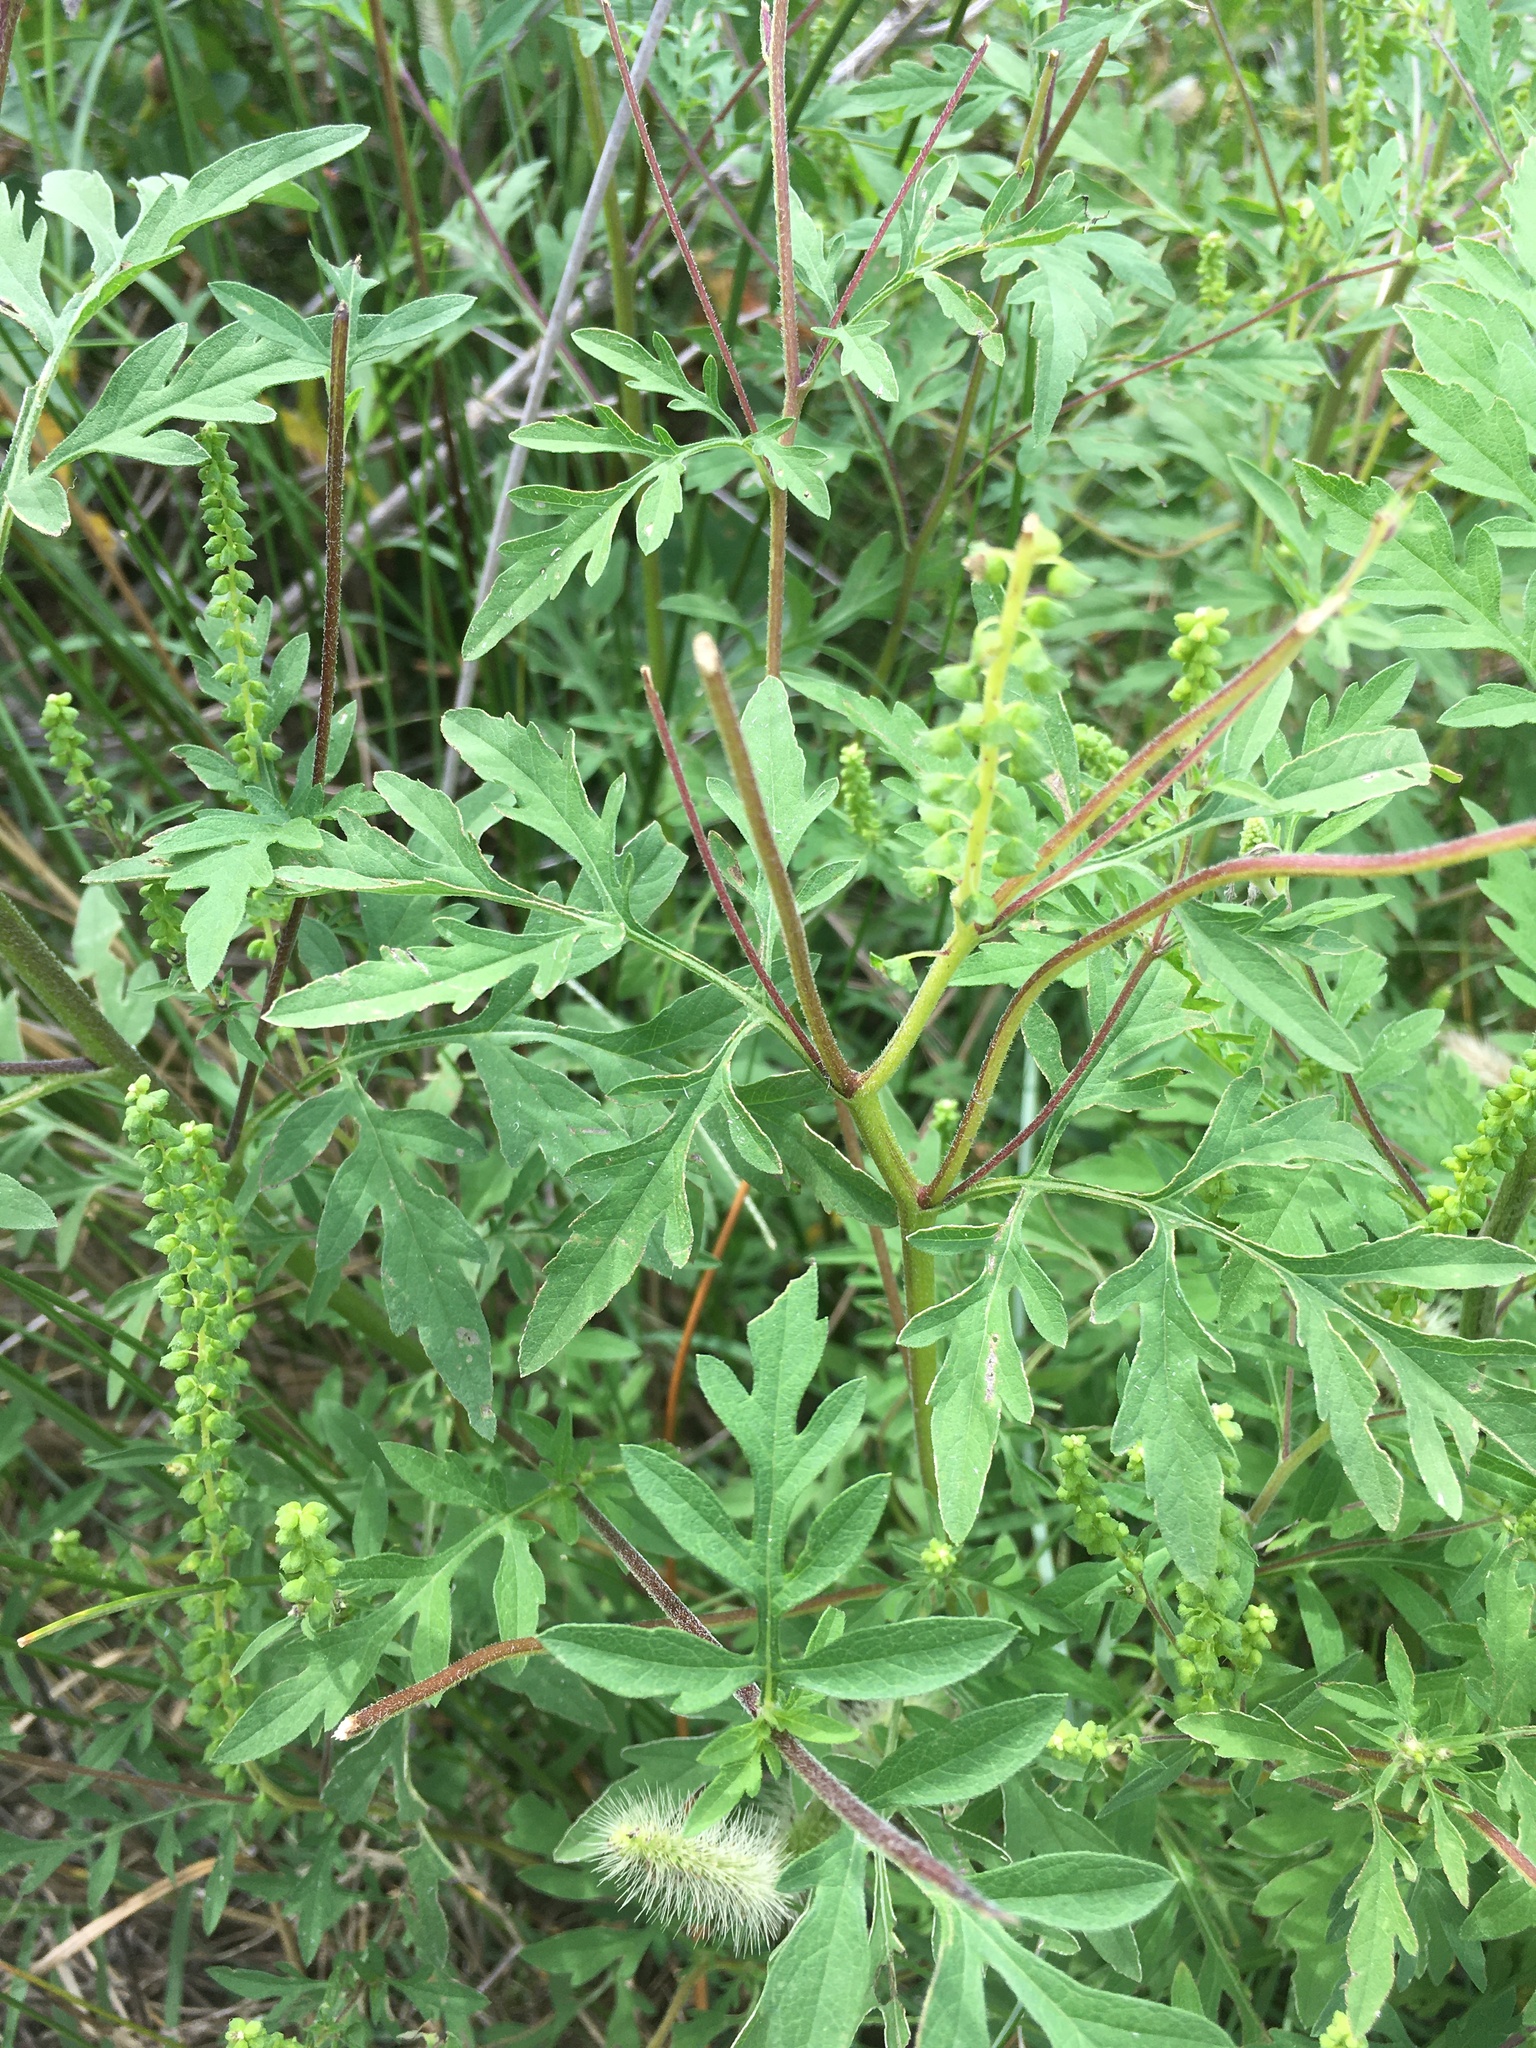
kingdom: Plantae
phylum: Tracheophyta
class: Magnoliopsida
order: Asterales
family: Asteraceae
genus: Ambrosia
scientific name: Ambrosia artemisiifolia
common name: Annual ragweed
